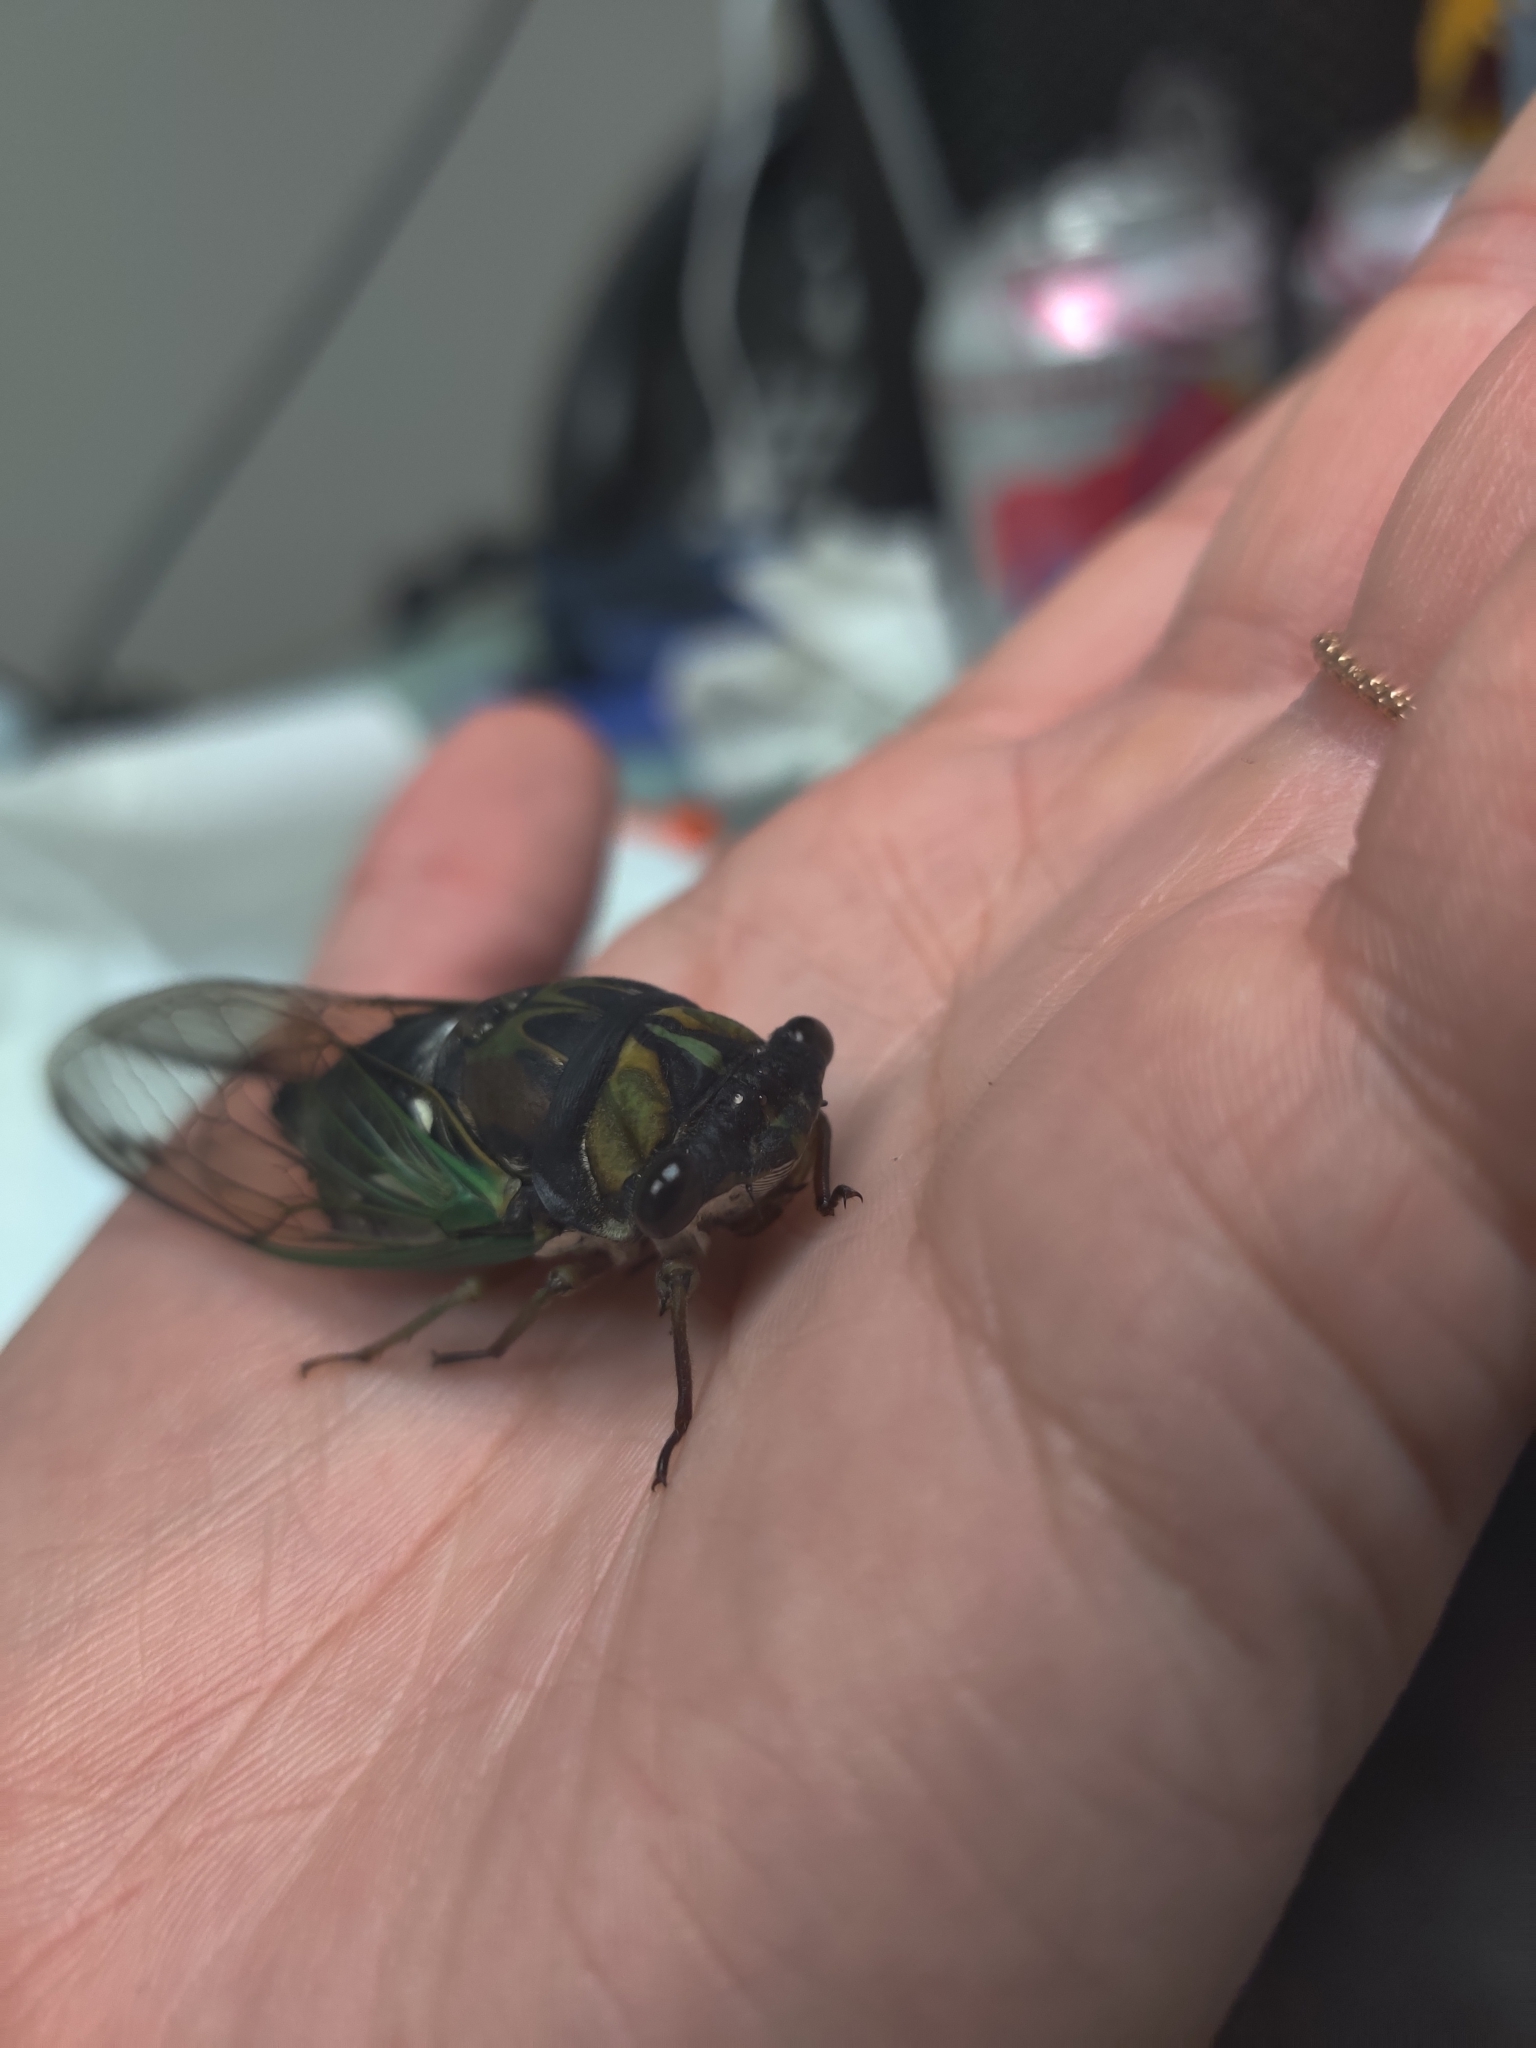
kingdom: Animalia
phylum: Arthropoda
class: Insecta
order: Hemiptera
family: Cicadidae
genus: Neotibicen
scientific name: Neotibicen lyricen
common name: Lyric cicada
